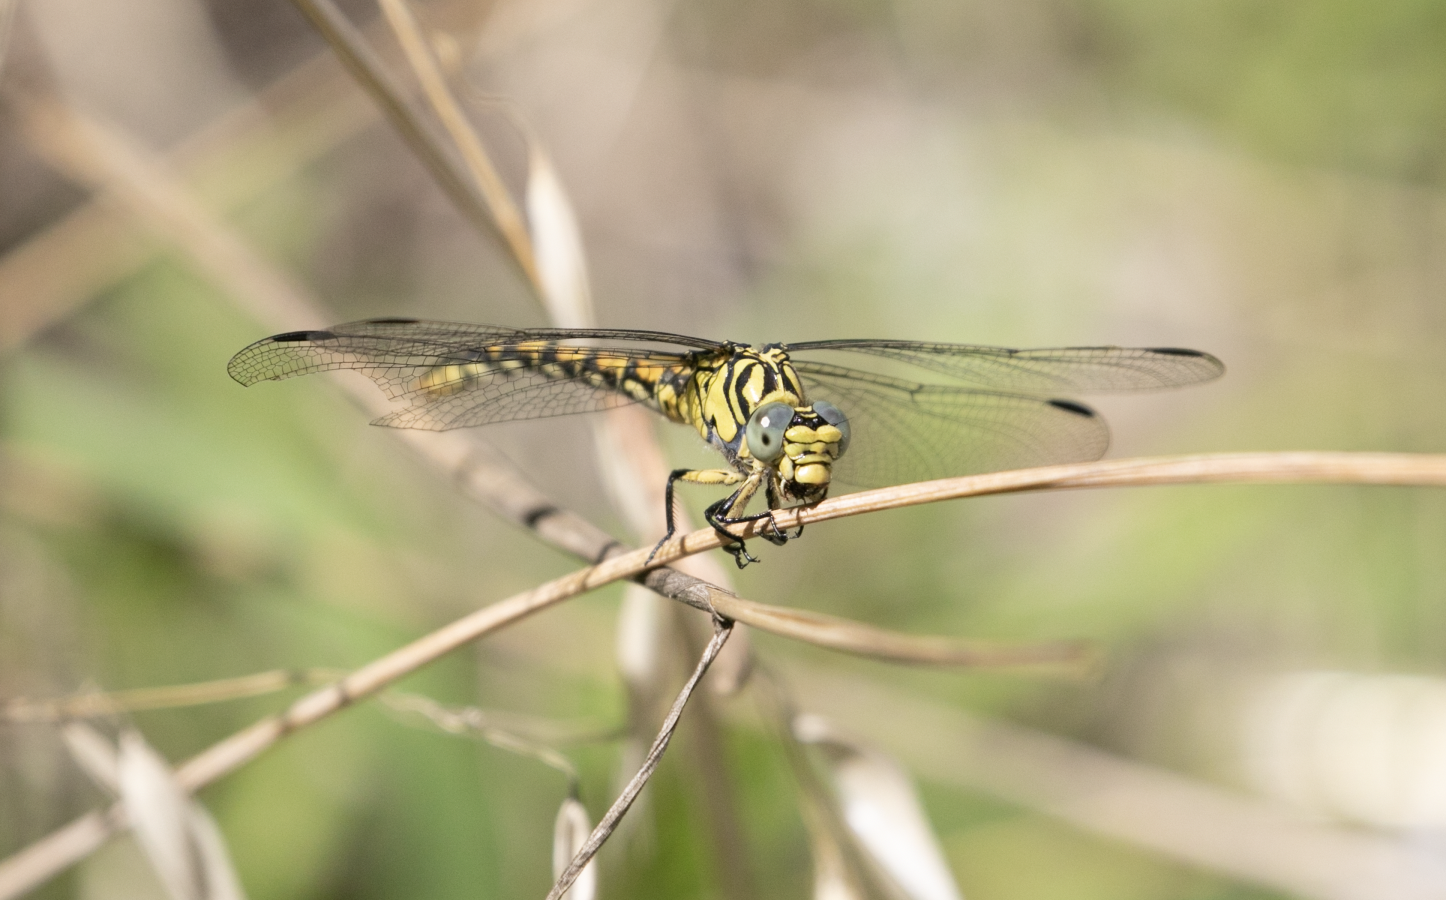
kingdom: Animalia
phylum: Arthropoda
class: Insecta
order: Odonata
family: Gomphidae
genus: Onychogomphus
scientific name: Onychogomphus forcipatus
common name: Small pincertail
